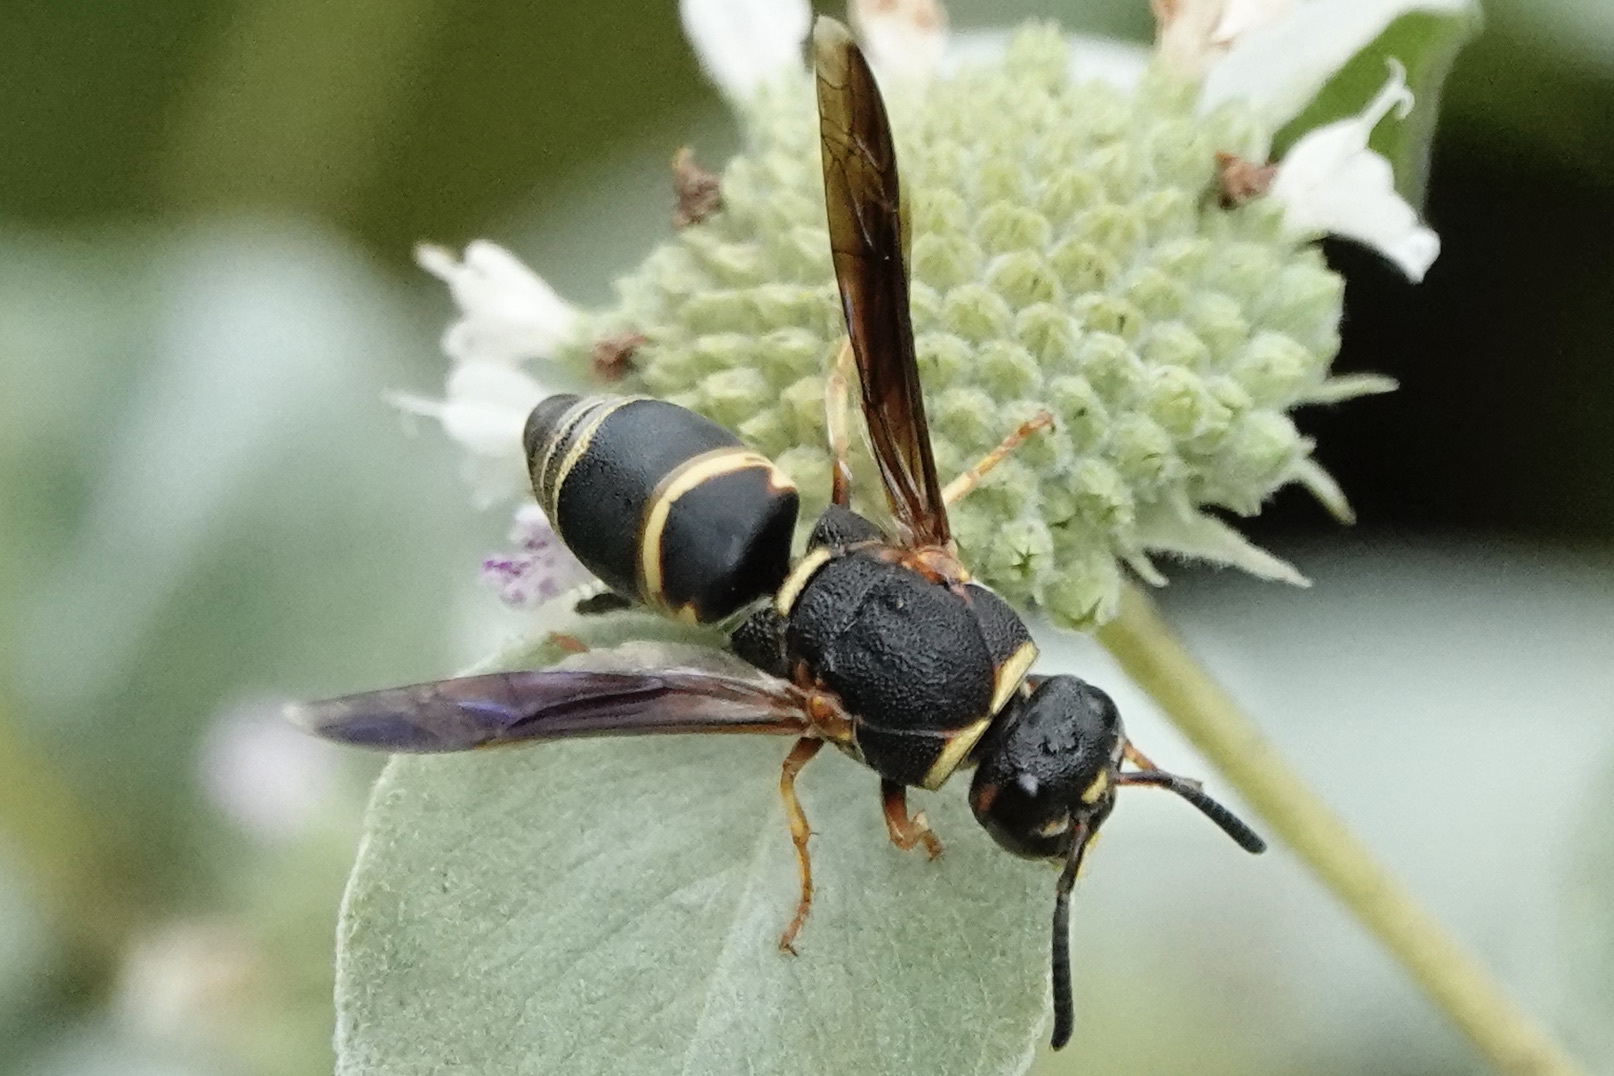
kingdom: Animalia
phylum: Arthropoda
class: Insecta
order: Hymenoptera
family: Eumenidae
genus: Euodynerus
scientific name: Euodynerus hidalgo
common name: Wasp
